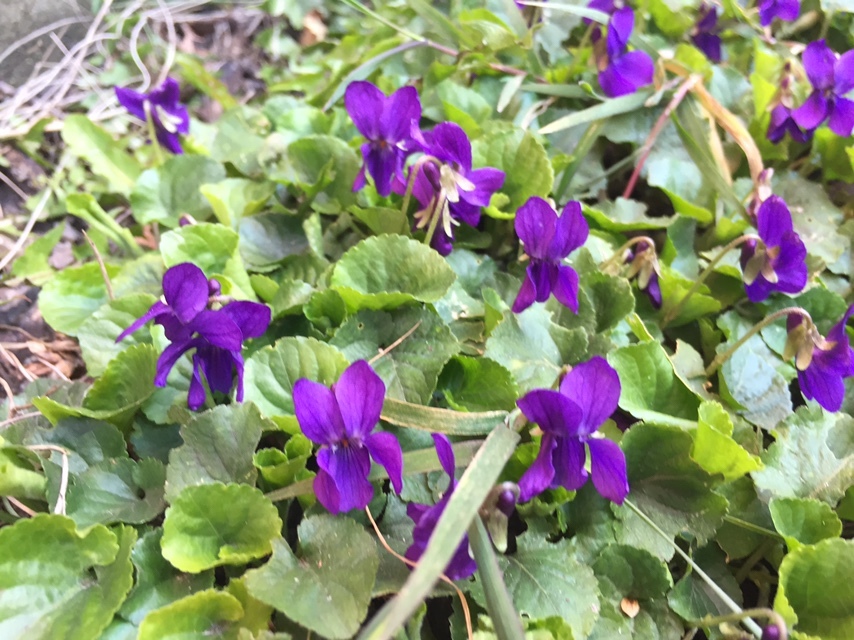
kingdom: Plantae
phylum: Tracheophyta
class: Magnoliopsida
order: Malpighiales
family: Violaceae
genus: Viola
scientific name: Viola odorata
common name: Sweet violet
